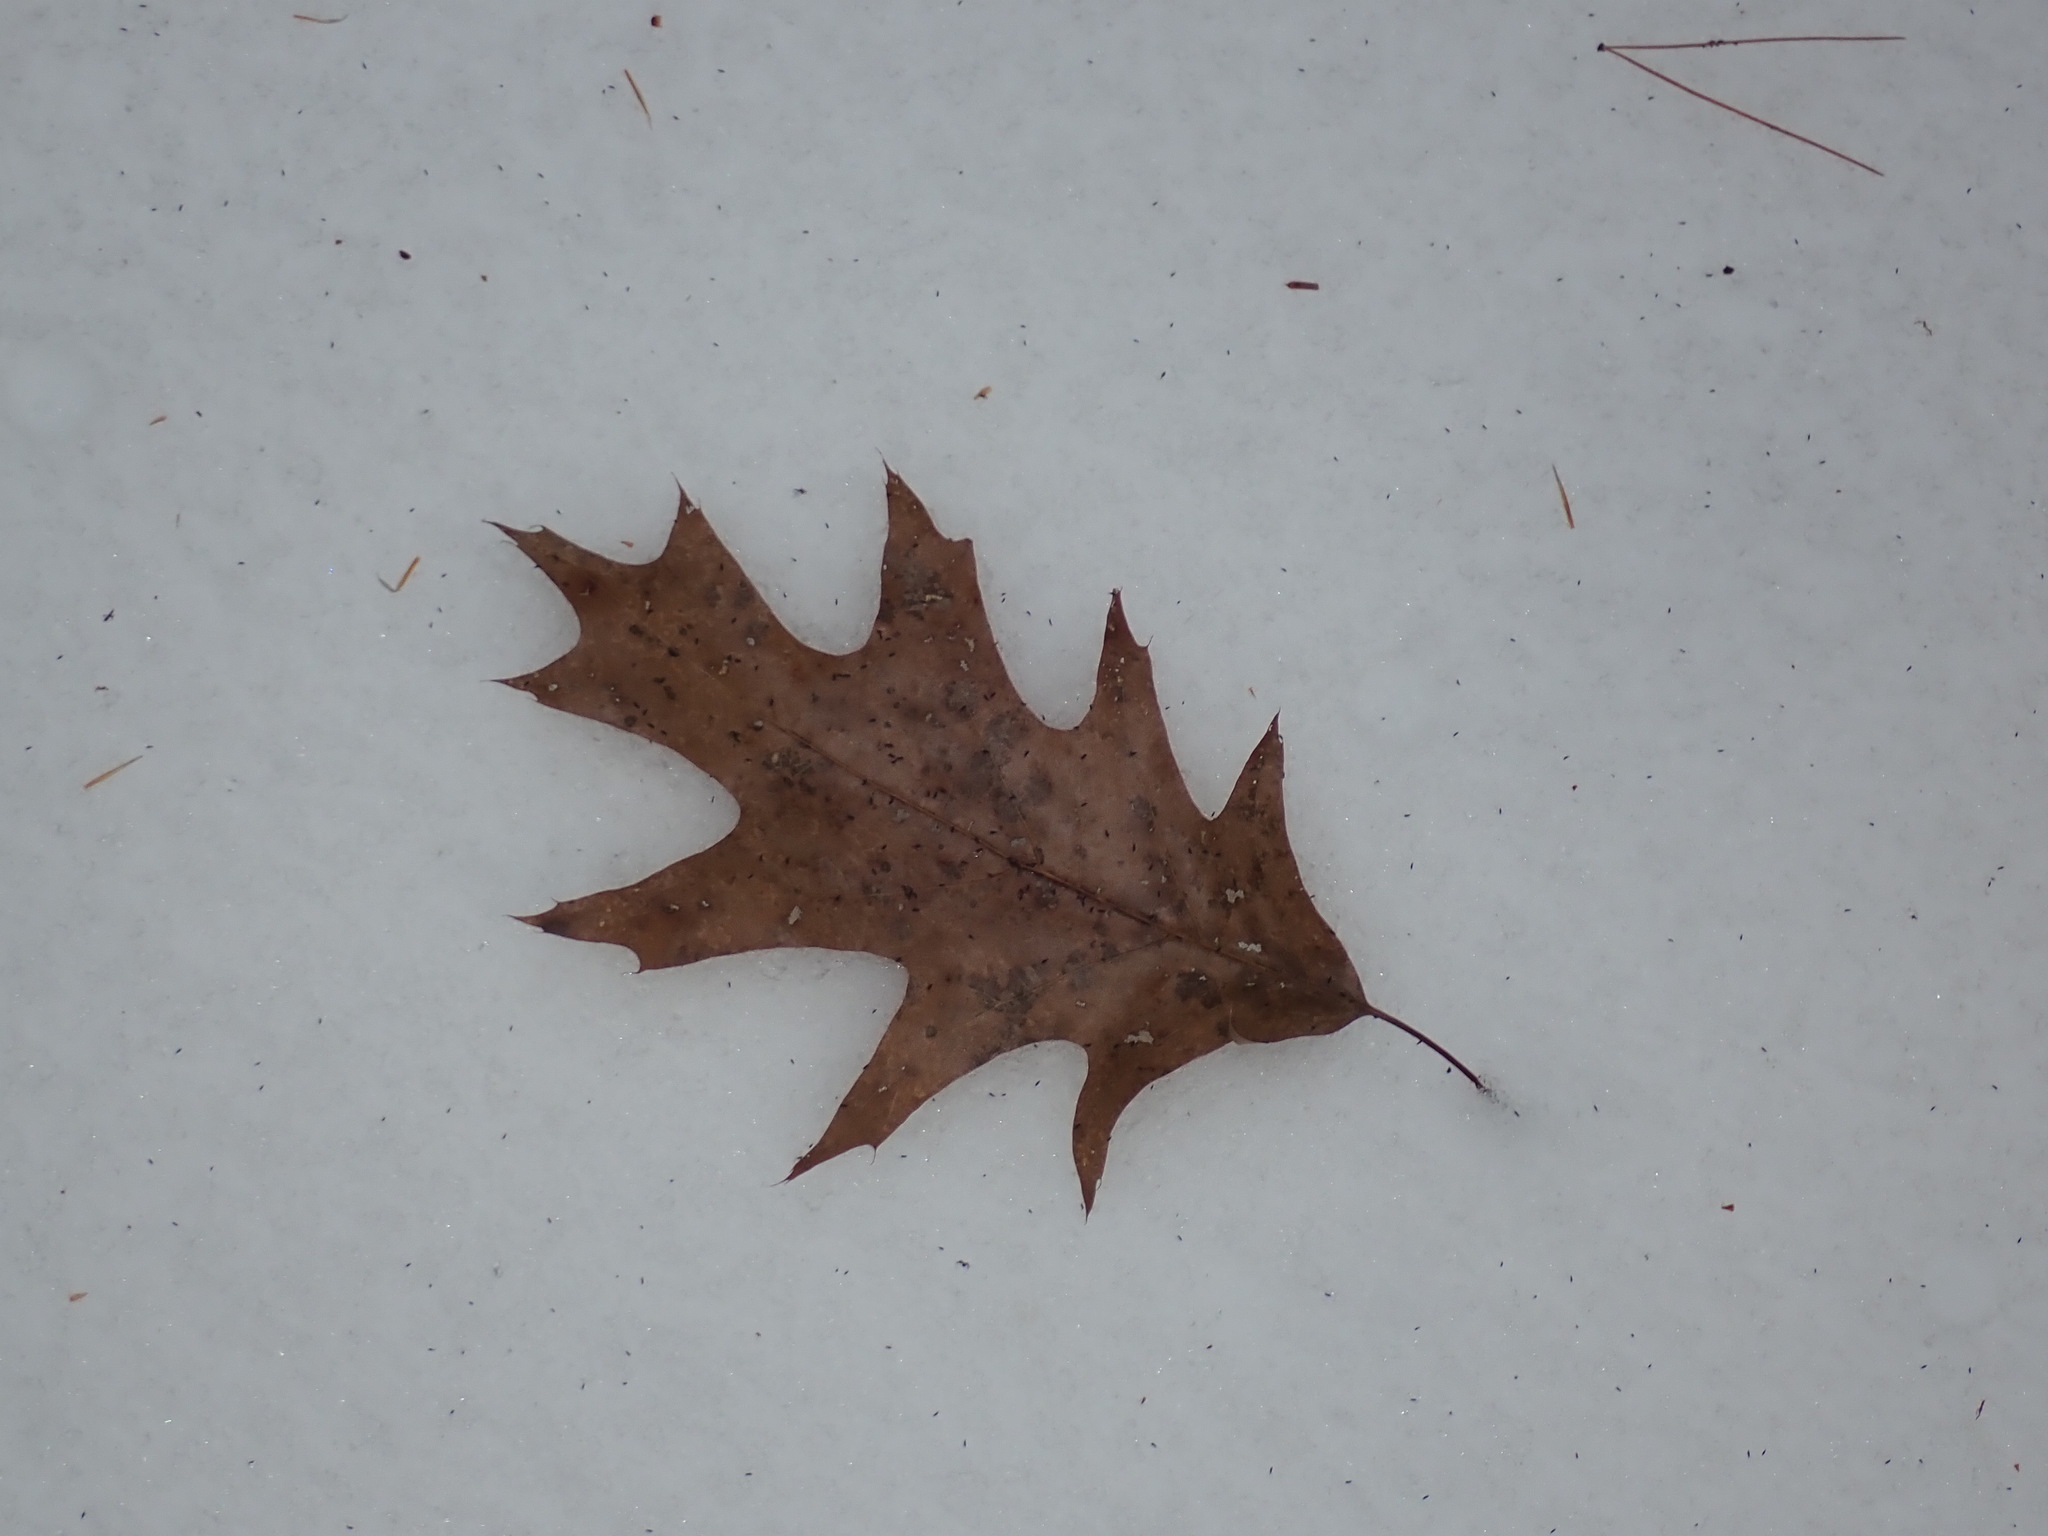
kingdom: Plantae
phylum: Tracheophyta
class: Magnoliopsida
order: Fagales
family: Fagaceae
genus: Quercus
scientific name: Quercus rubra
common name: Red oak
